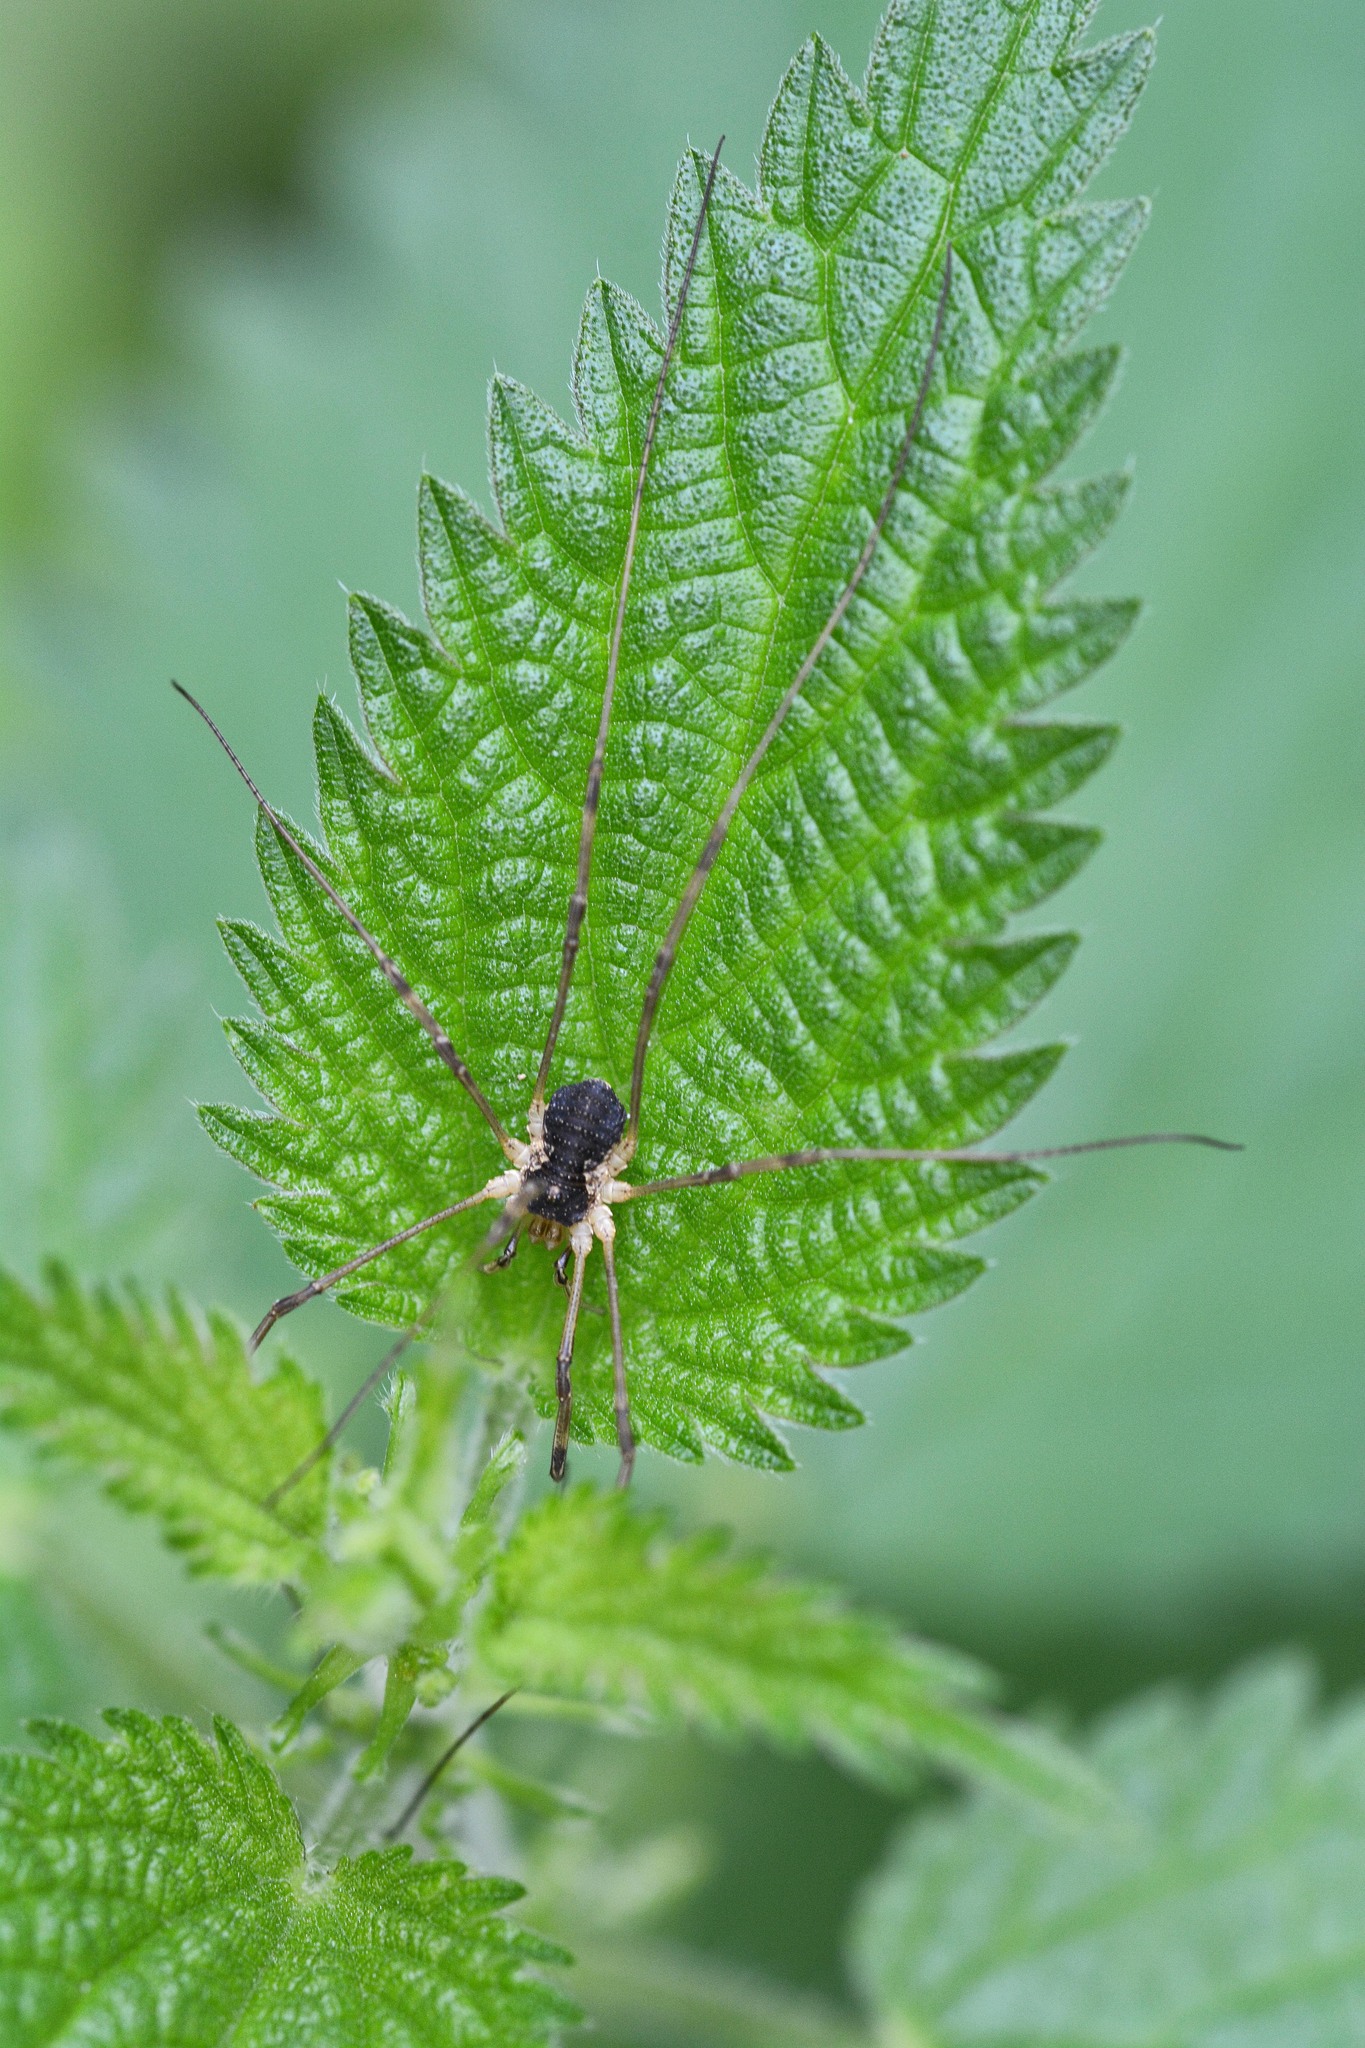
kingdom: Animalia
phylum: Arthropoda
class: Arachnida
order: Opiliones
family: Phalangiidae
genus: Mitopus
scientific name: Mitopus morio
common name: Saddleback harvestman
